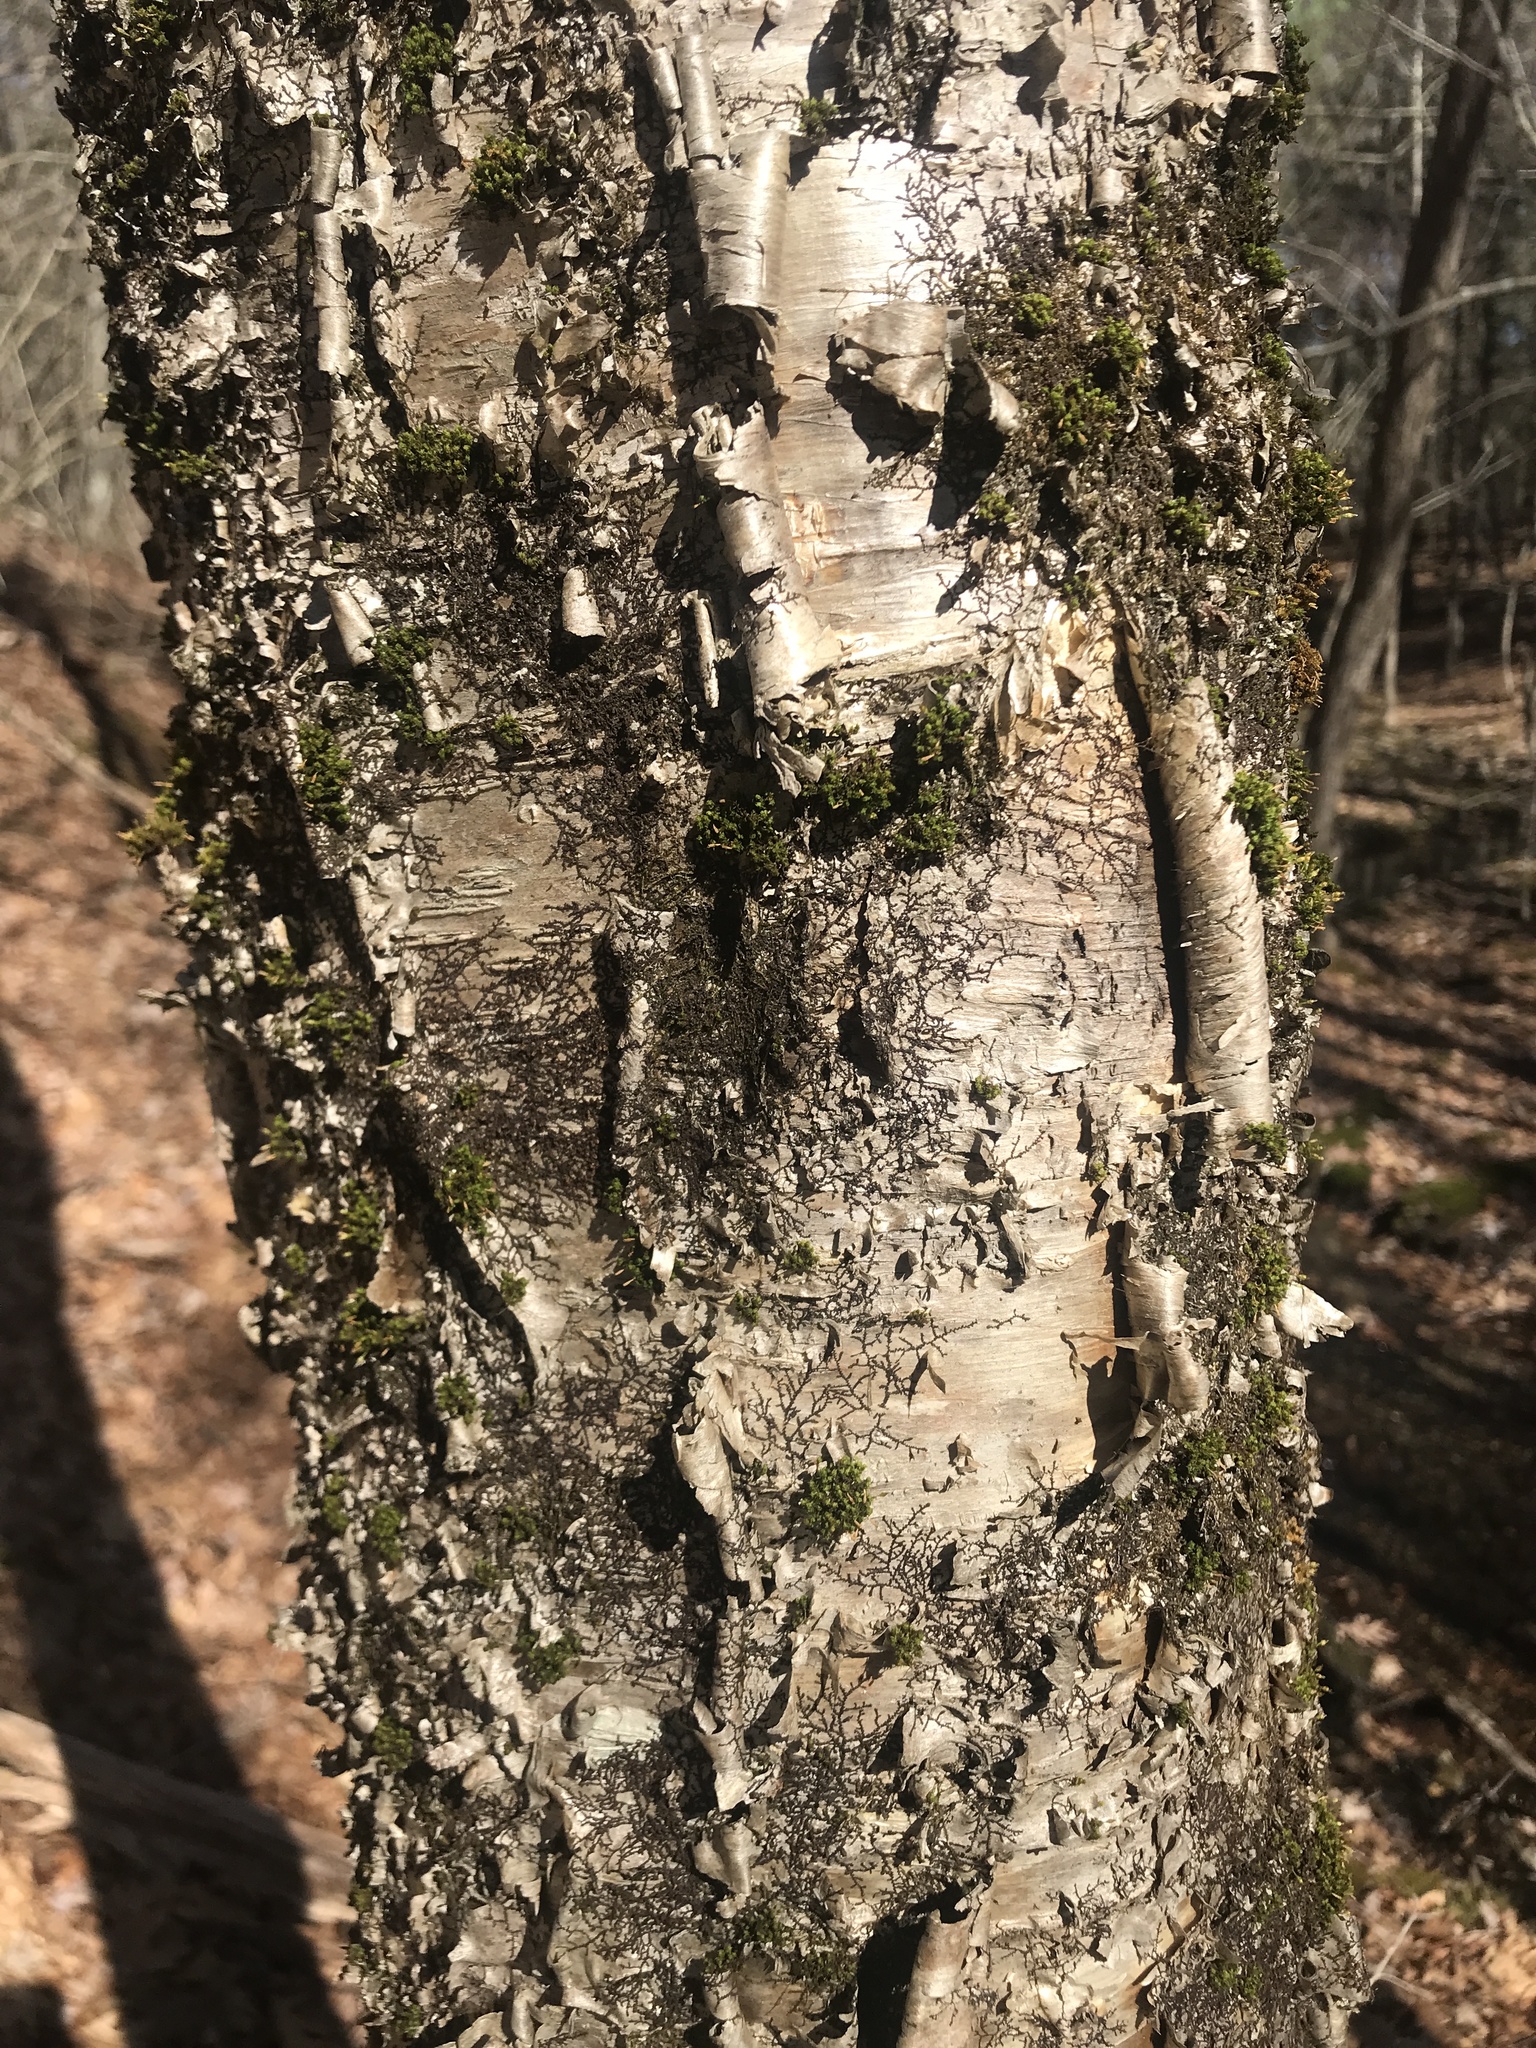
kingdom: Plantae
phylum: Tracheophyta
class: Magnoliopsida
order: Fagales
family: Betulaceae
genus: Betula
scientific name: Betula alleghaniensis
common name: Yellow birch
